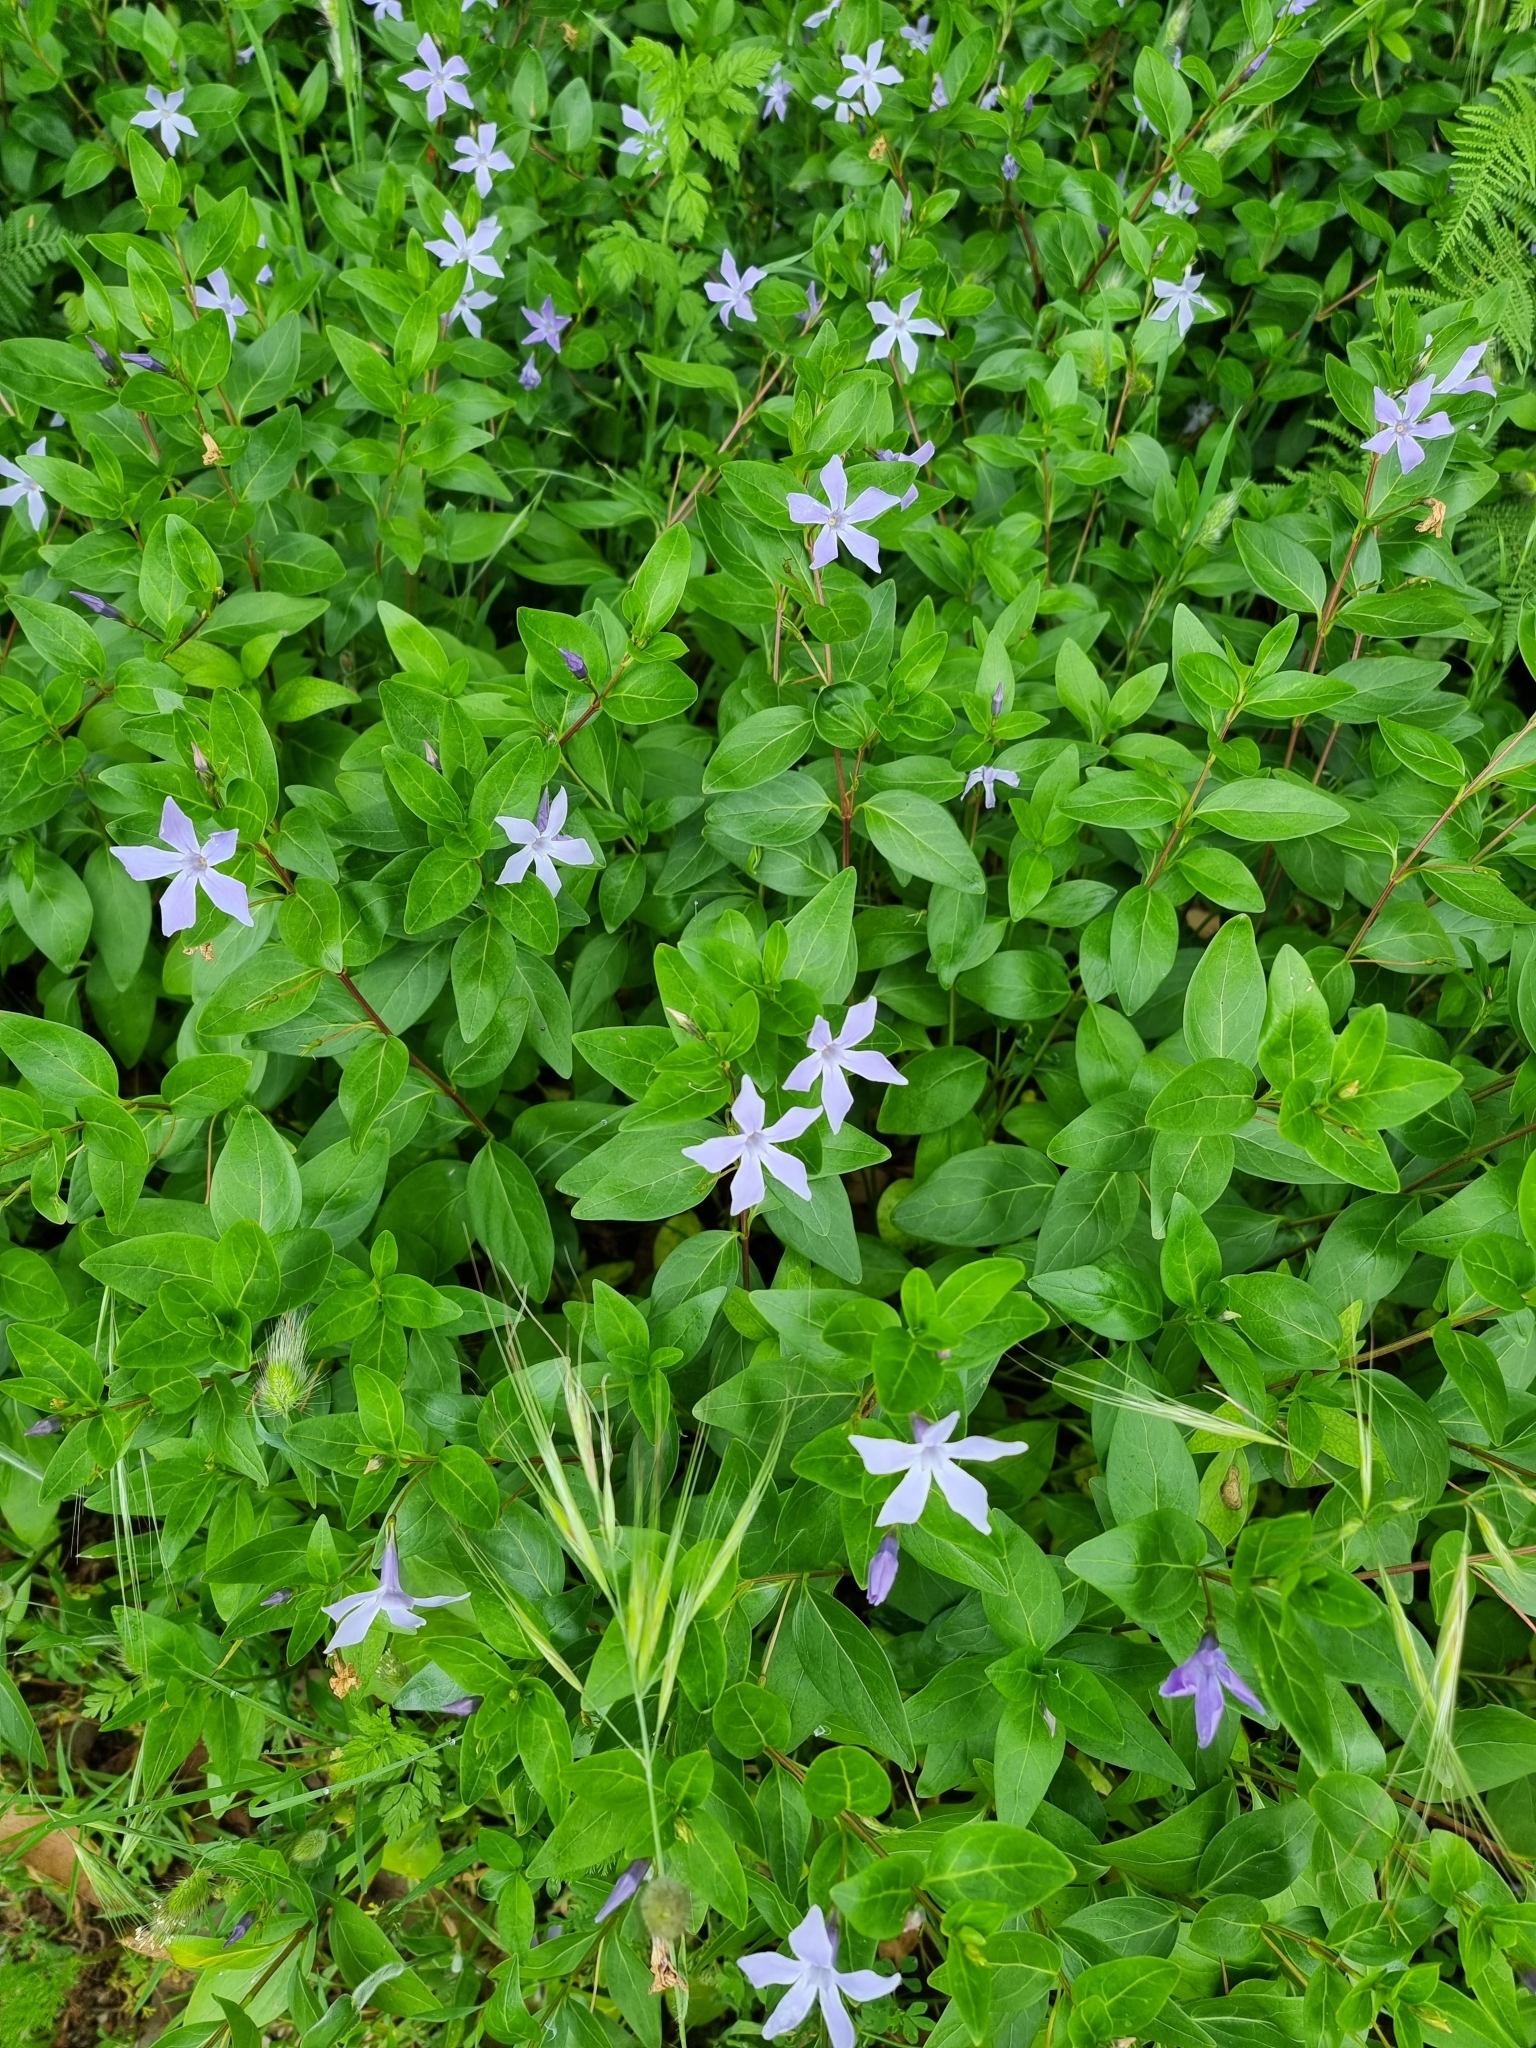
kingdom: Plantae
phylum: Tracheophyta
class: Magnoliopsida
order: Gentianales
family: Apocynaceae
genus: Vinca
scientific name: Vinca difformis
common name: Intermediate periwinkle
